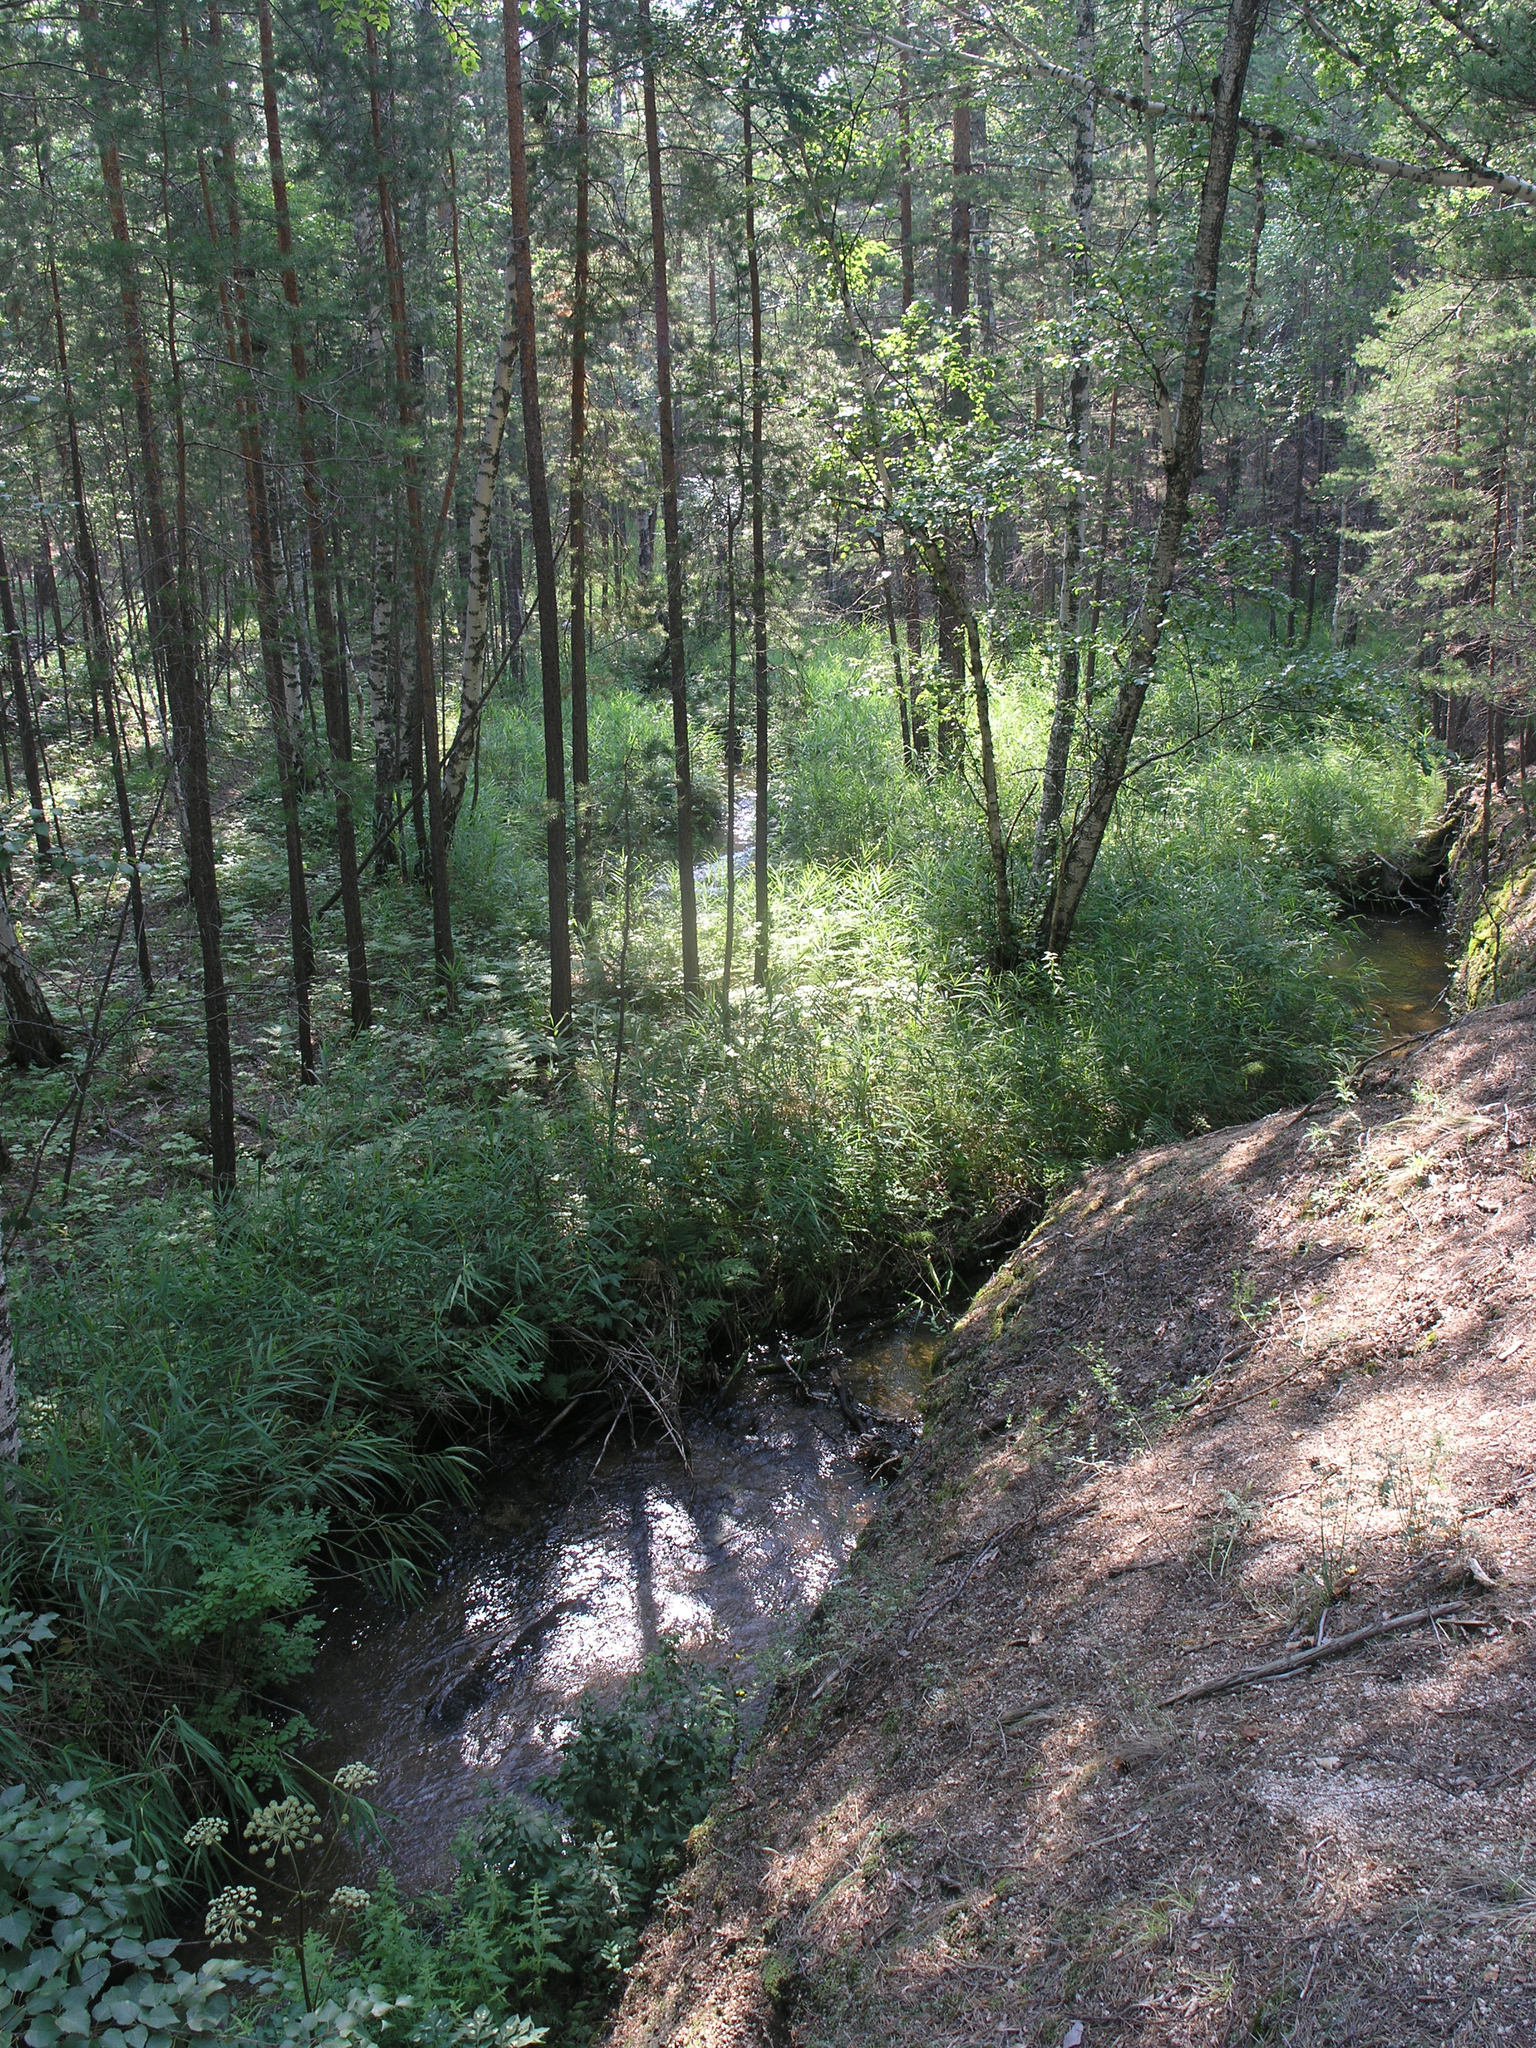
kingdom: Plantae
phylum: Tracheophyta
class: Liliopsida
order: Poales
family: Poaceae
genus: Phragmites
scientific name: Phragmites australis
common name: Common reed
